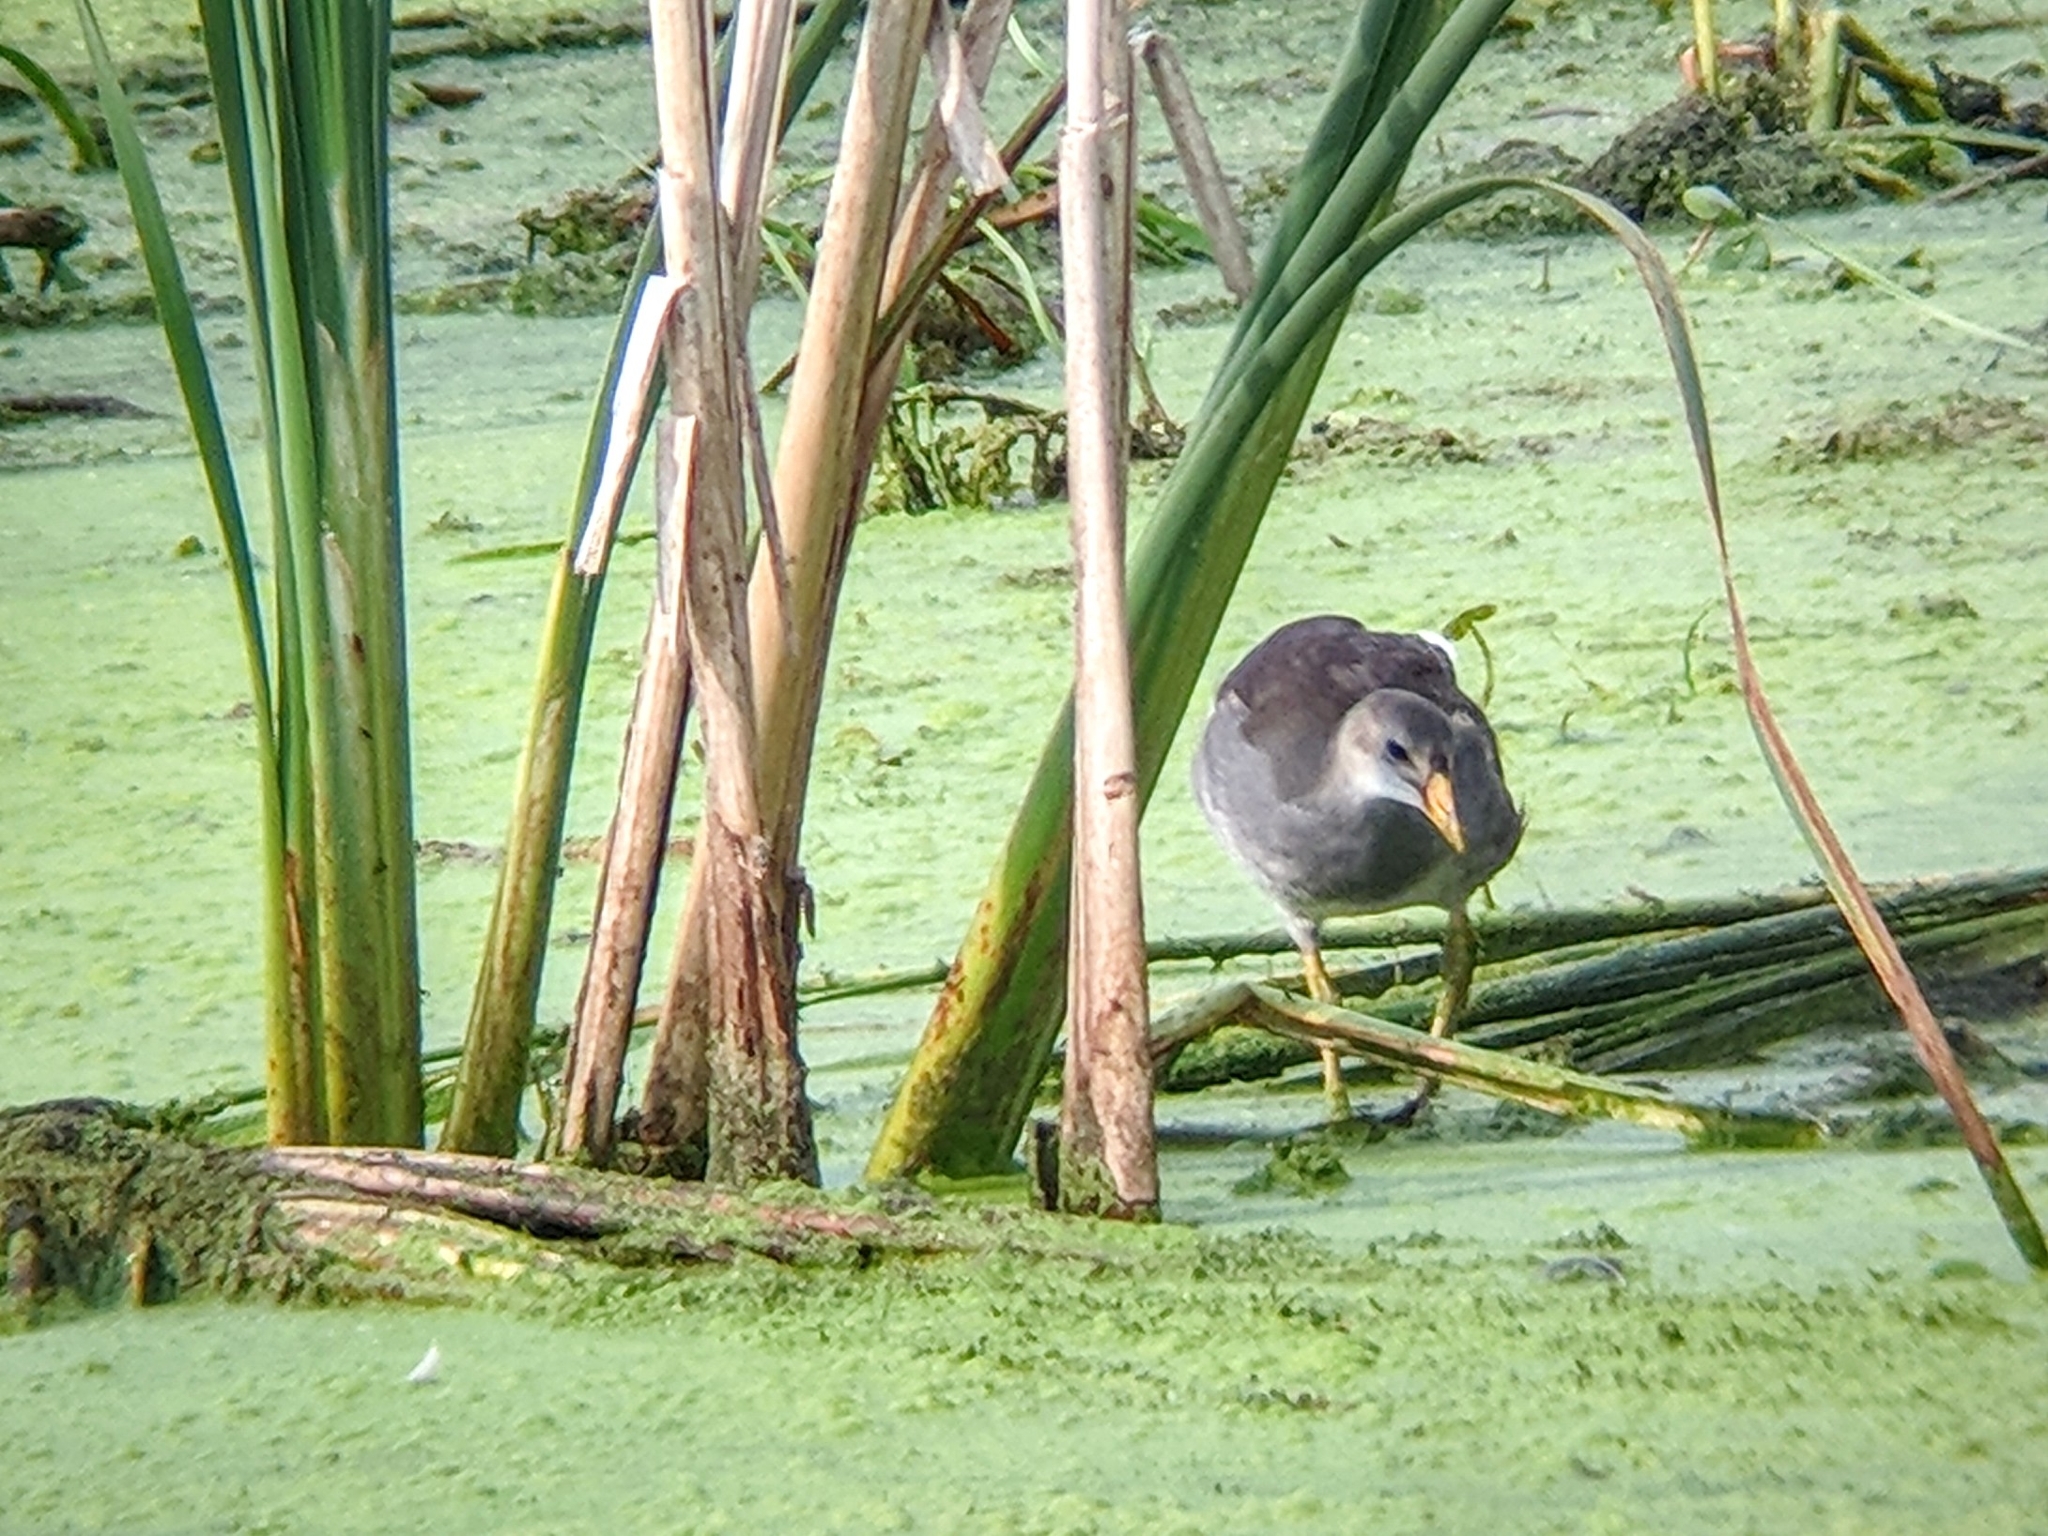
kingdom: Animalia
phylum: Chordata
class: Aves
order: Gruiformes
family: Rallidae
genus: Gallinula
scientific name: Gallinula chloropus
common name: Common moorhen
